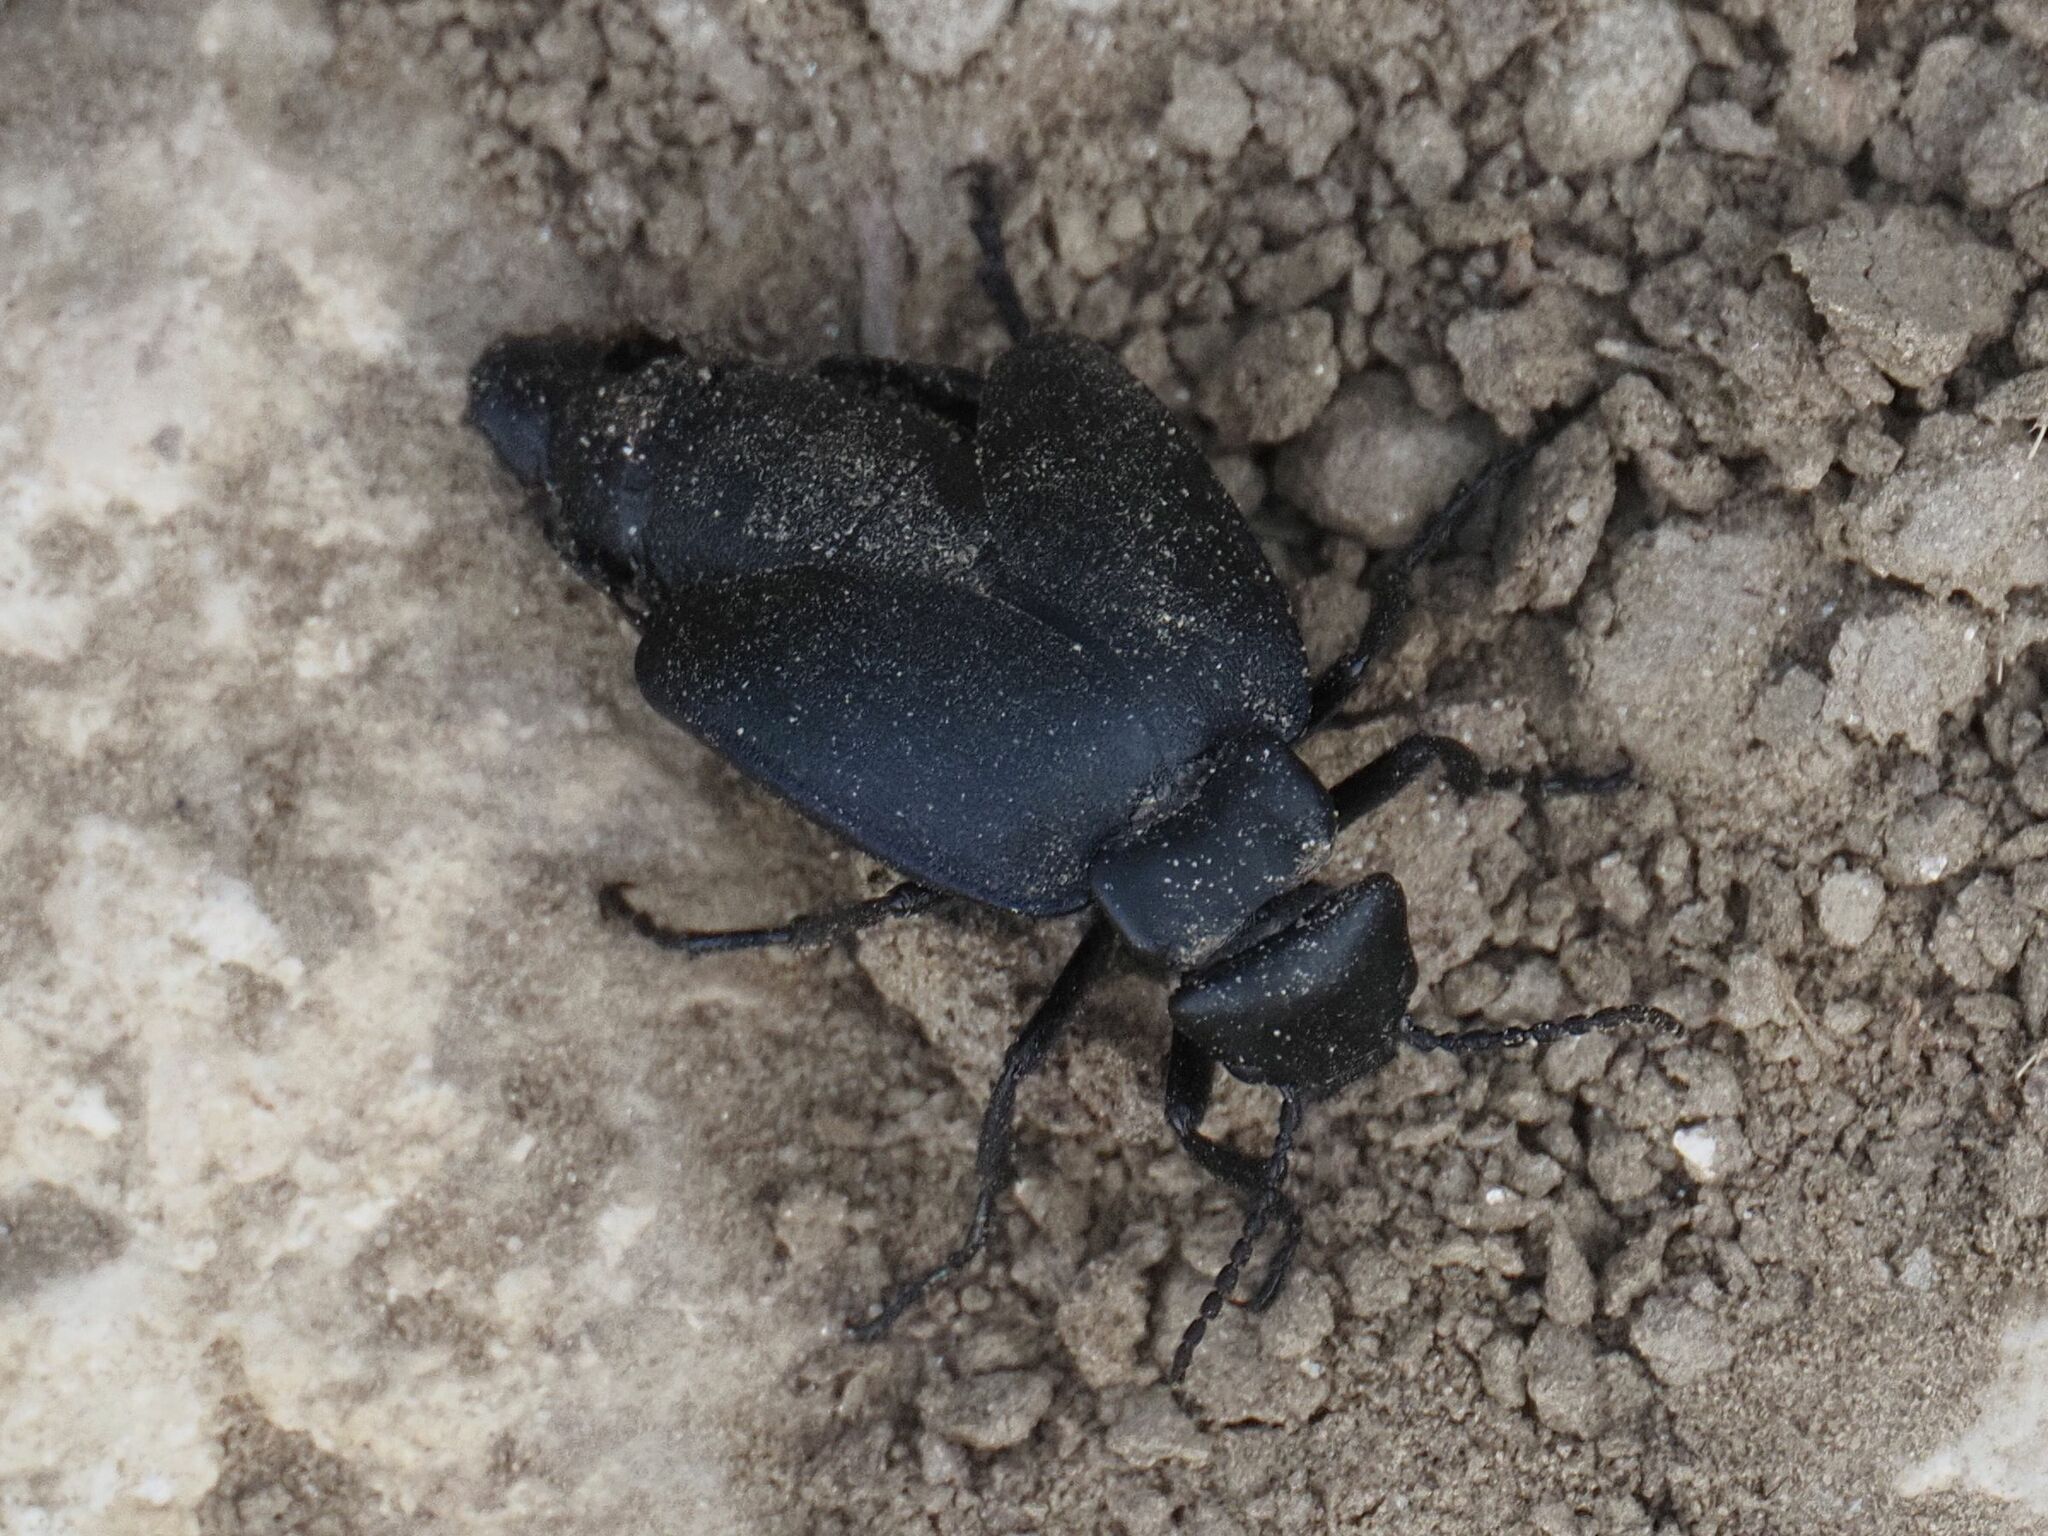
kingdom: Animalia
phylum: Arthropoda
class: Insecta
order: Coleoptera
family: Meloidae
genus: Meloe
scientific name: Meloe uralensis
